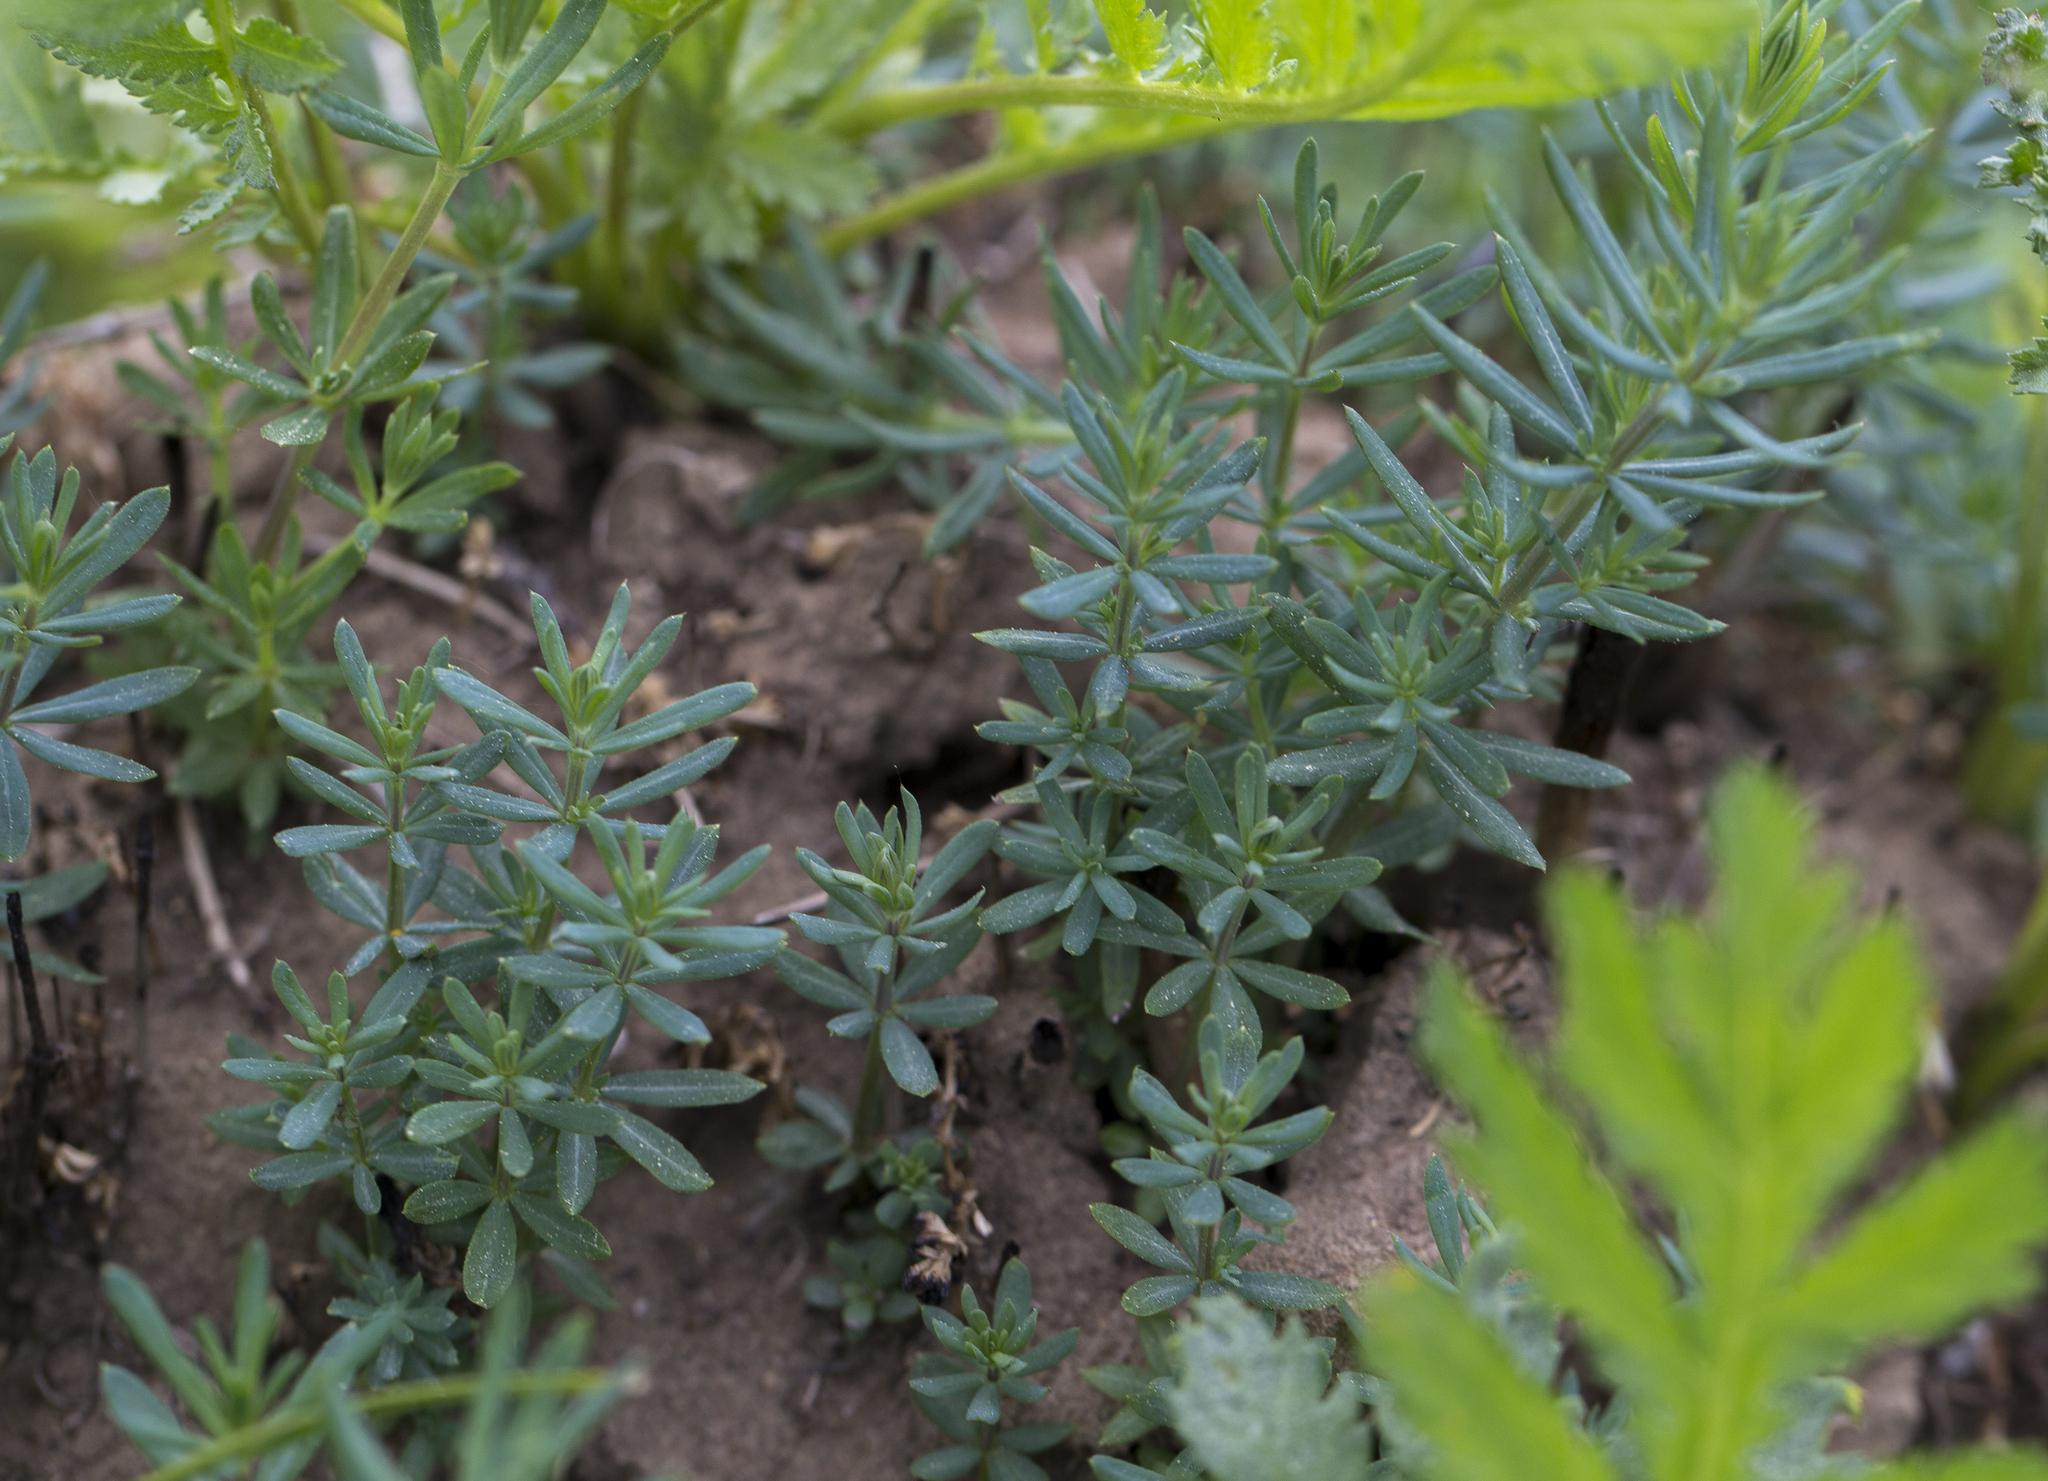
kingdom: Plantae
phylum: Tracheophyta
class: Magnoliopsida
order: Gentianales
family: Rubiaceae
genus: Galium
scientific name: Galium verum
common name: Lady's bedstraw
